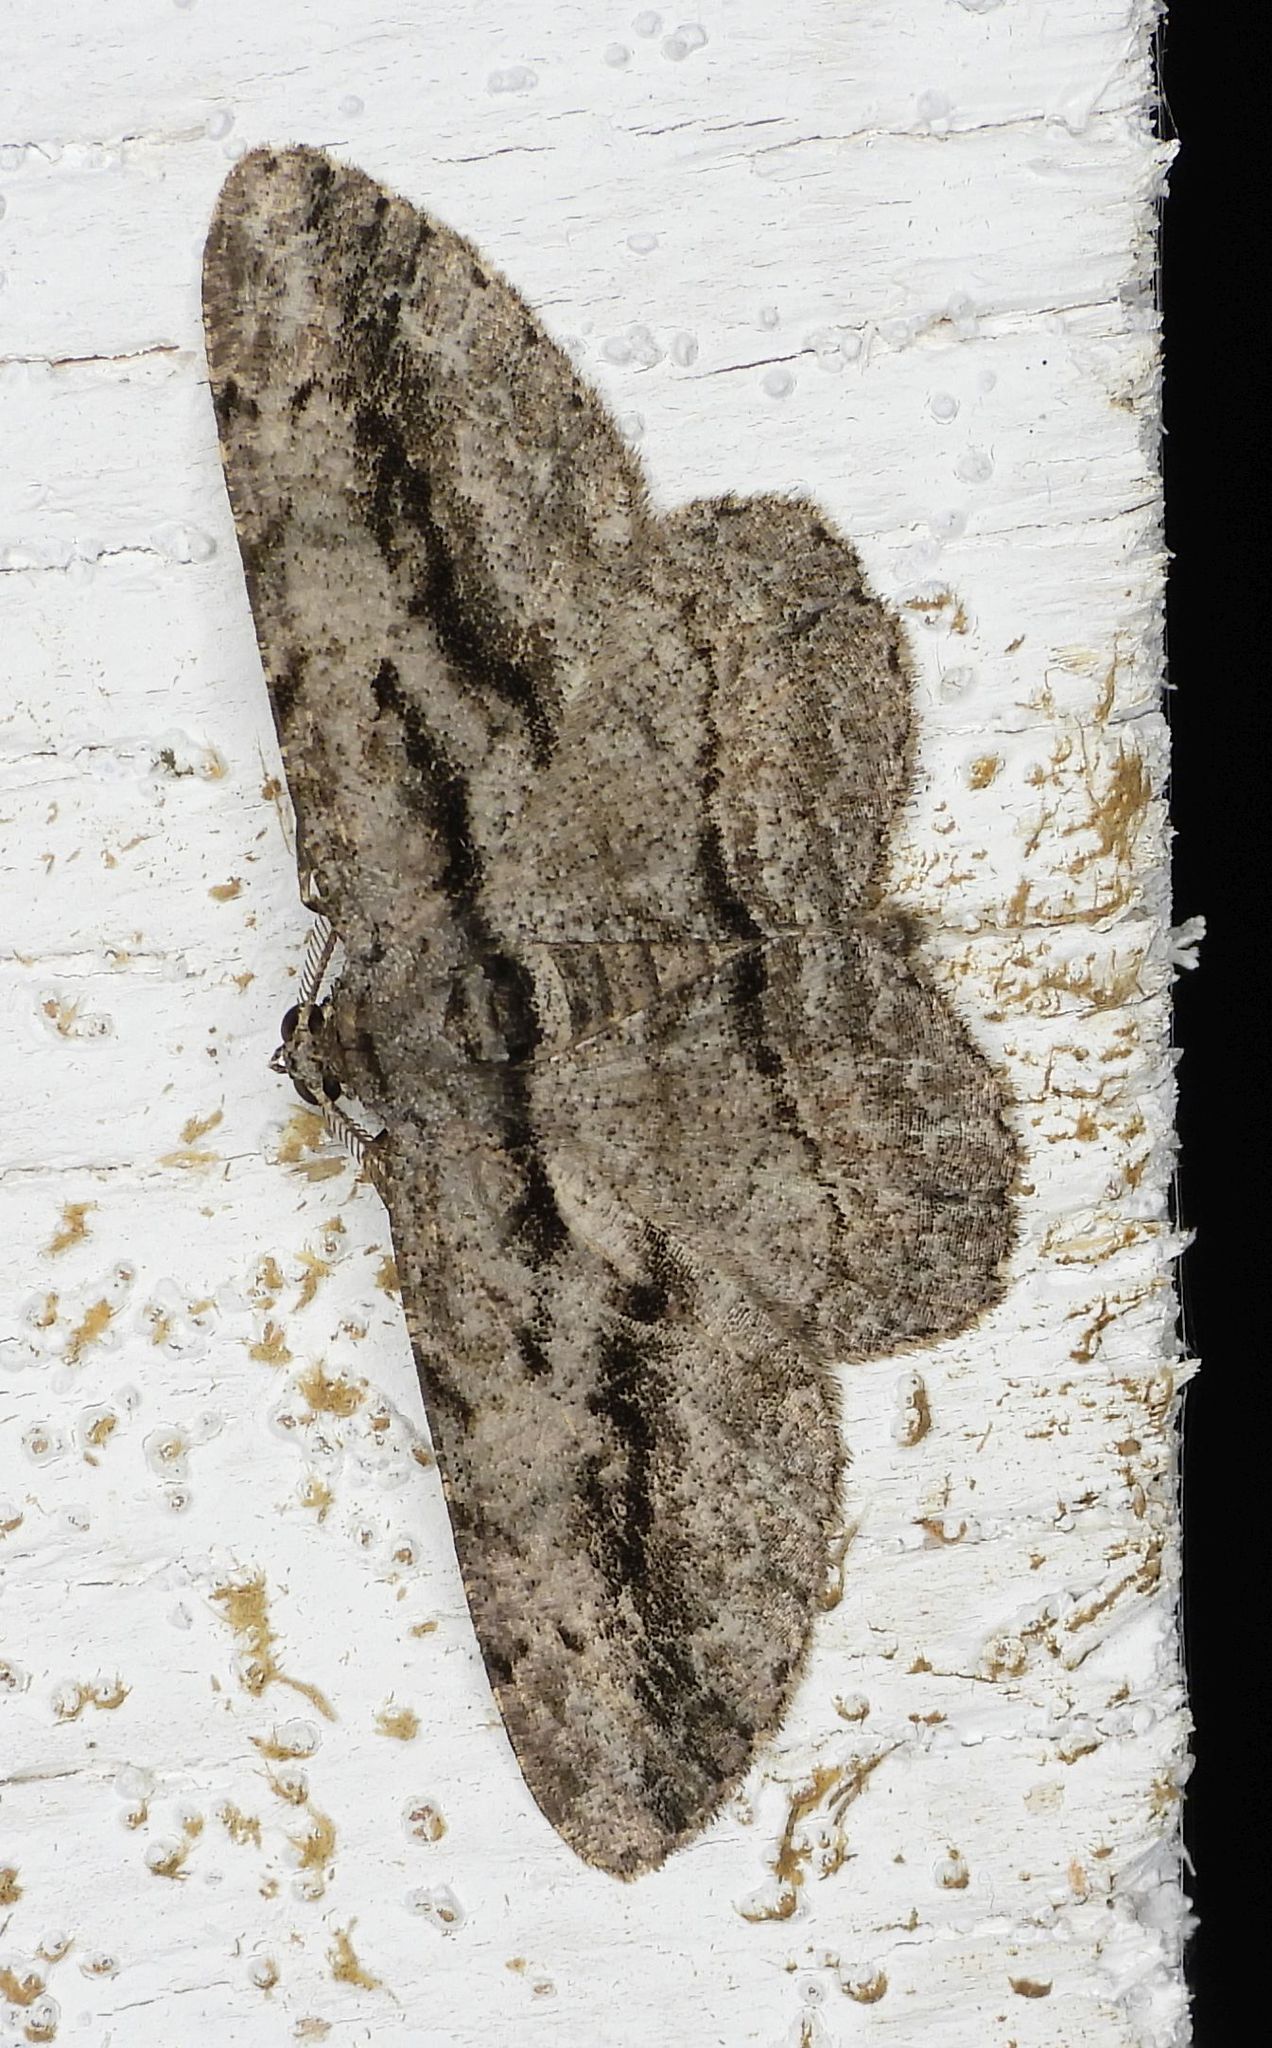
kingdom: Animalia
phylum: Arthropoda
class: Insecta
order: Lepidoptera
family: Geometridae
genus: Anavitrinella
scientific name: Anavitrinella pampinaria
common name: Common gray
